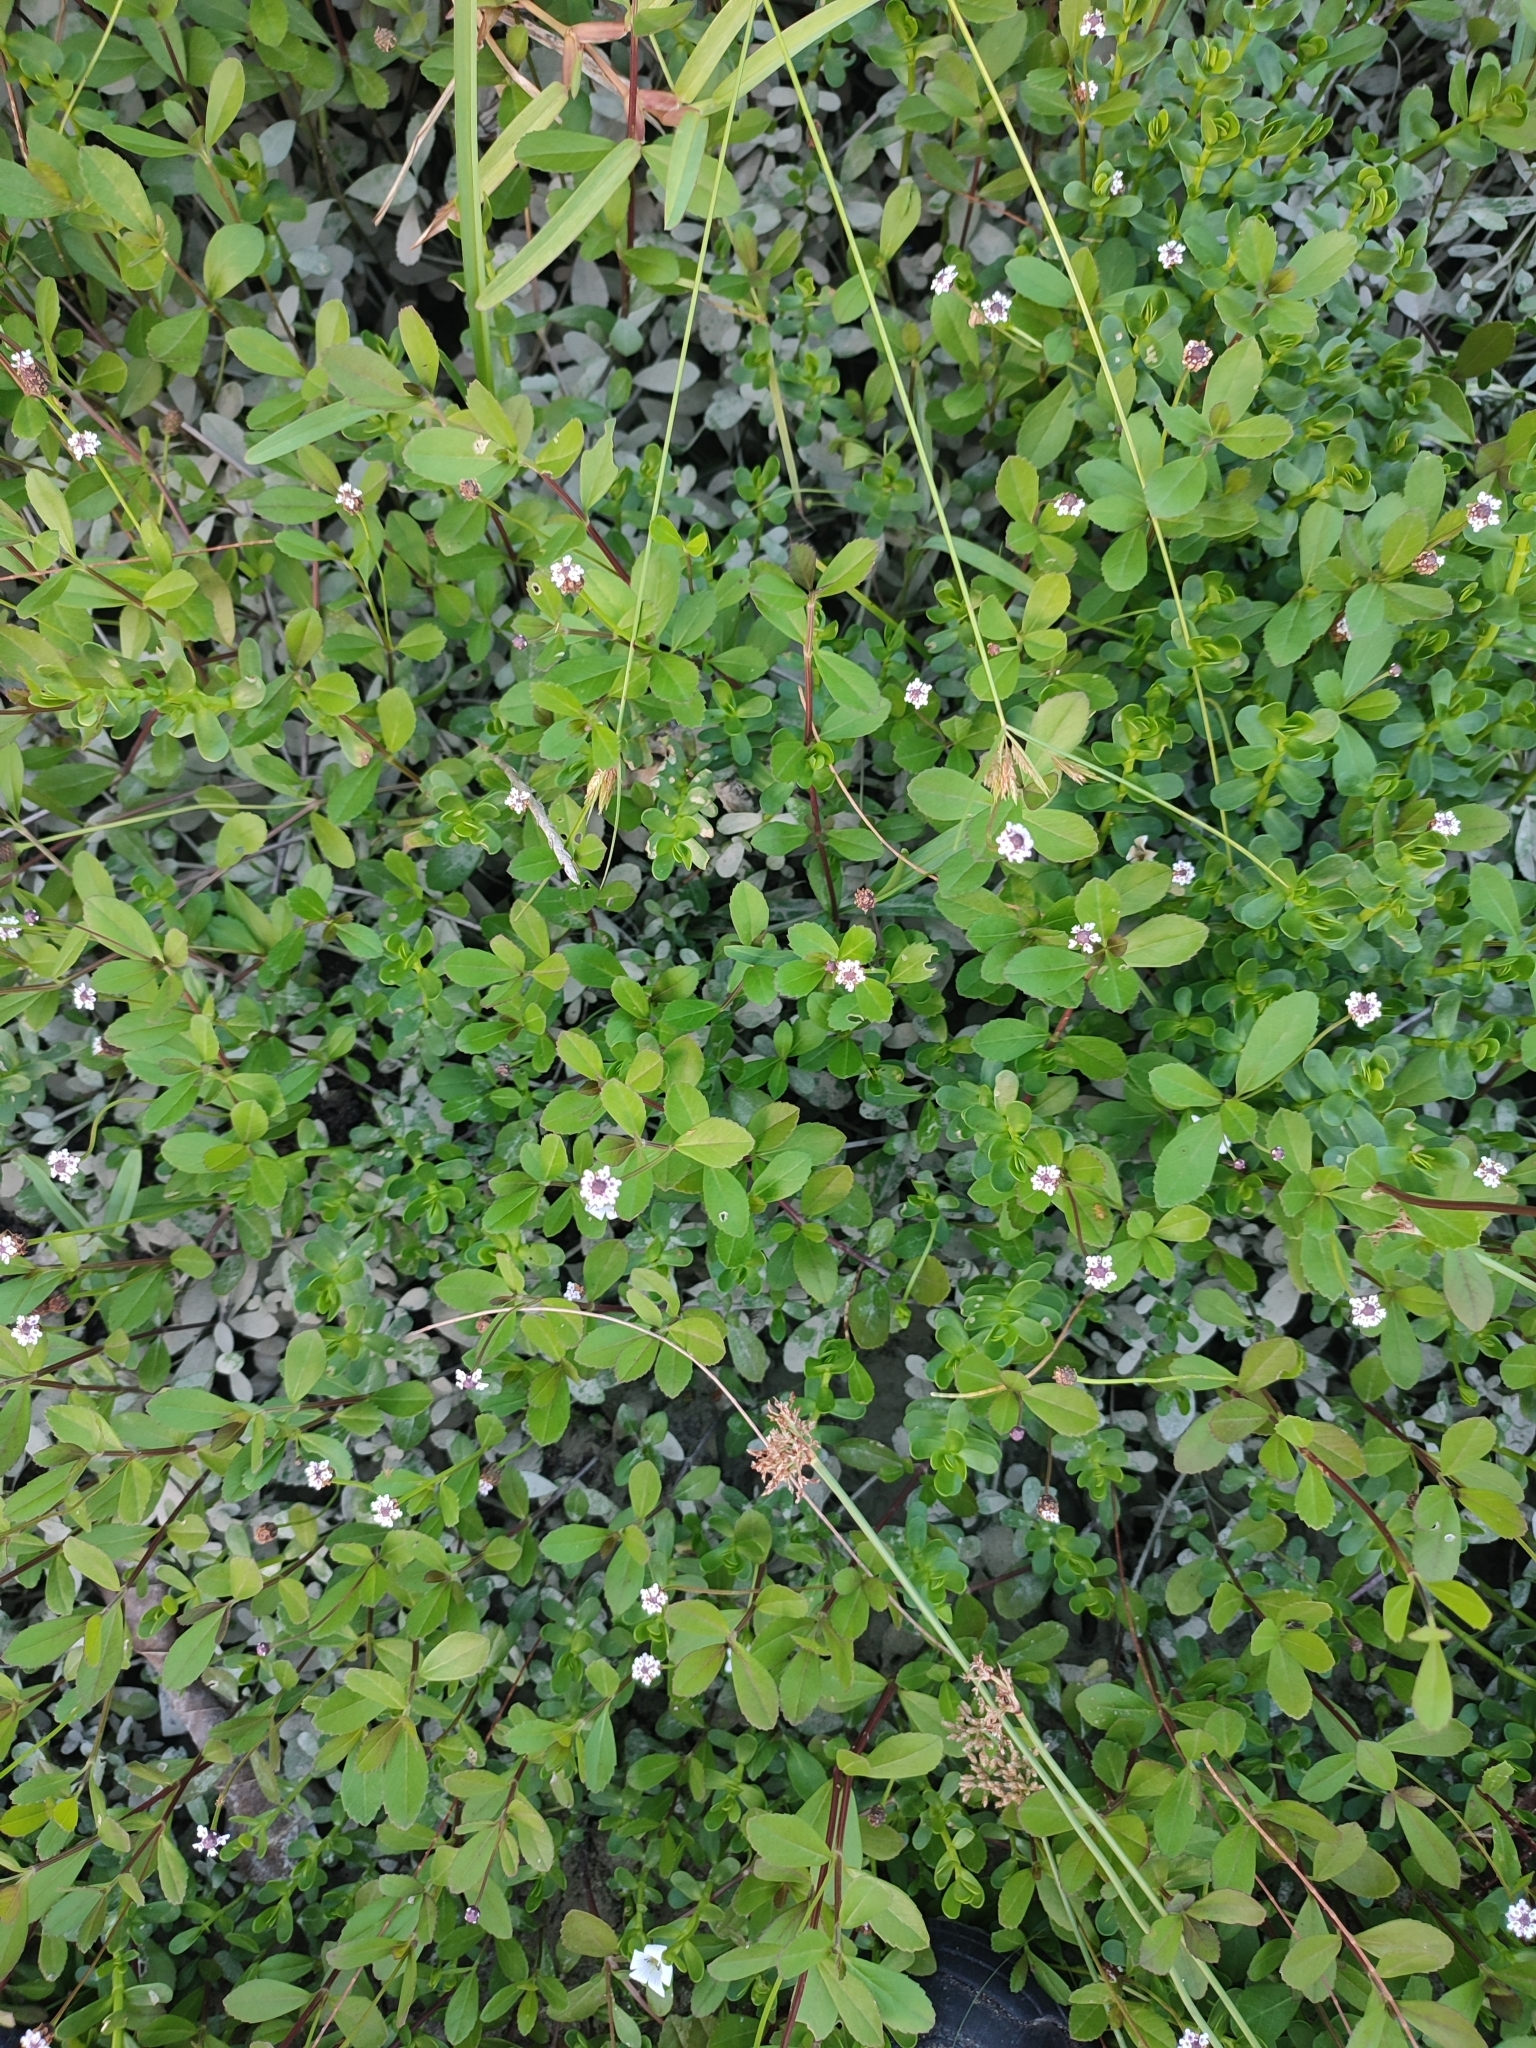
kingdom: Plantae
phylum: Tracheophyta
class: Magnoliopsida
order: Lamiales
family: Verbenaceae
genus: Phyla
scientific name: Phyla nodiflora
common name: Frogfruit
